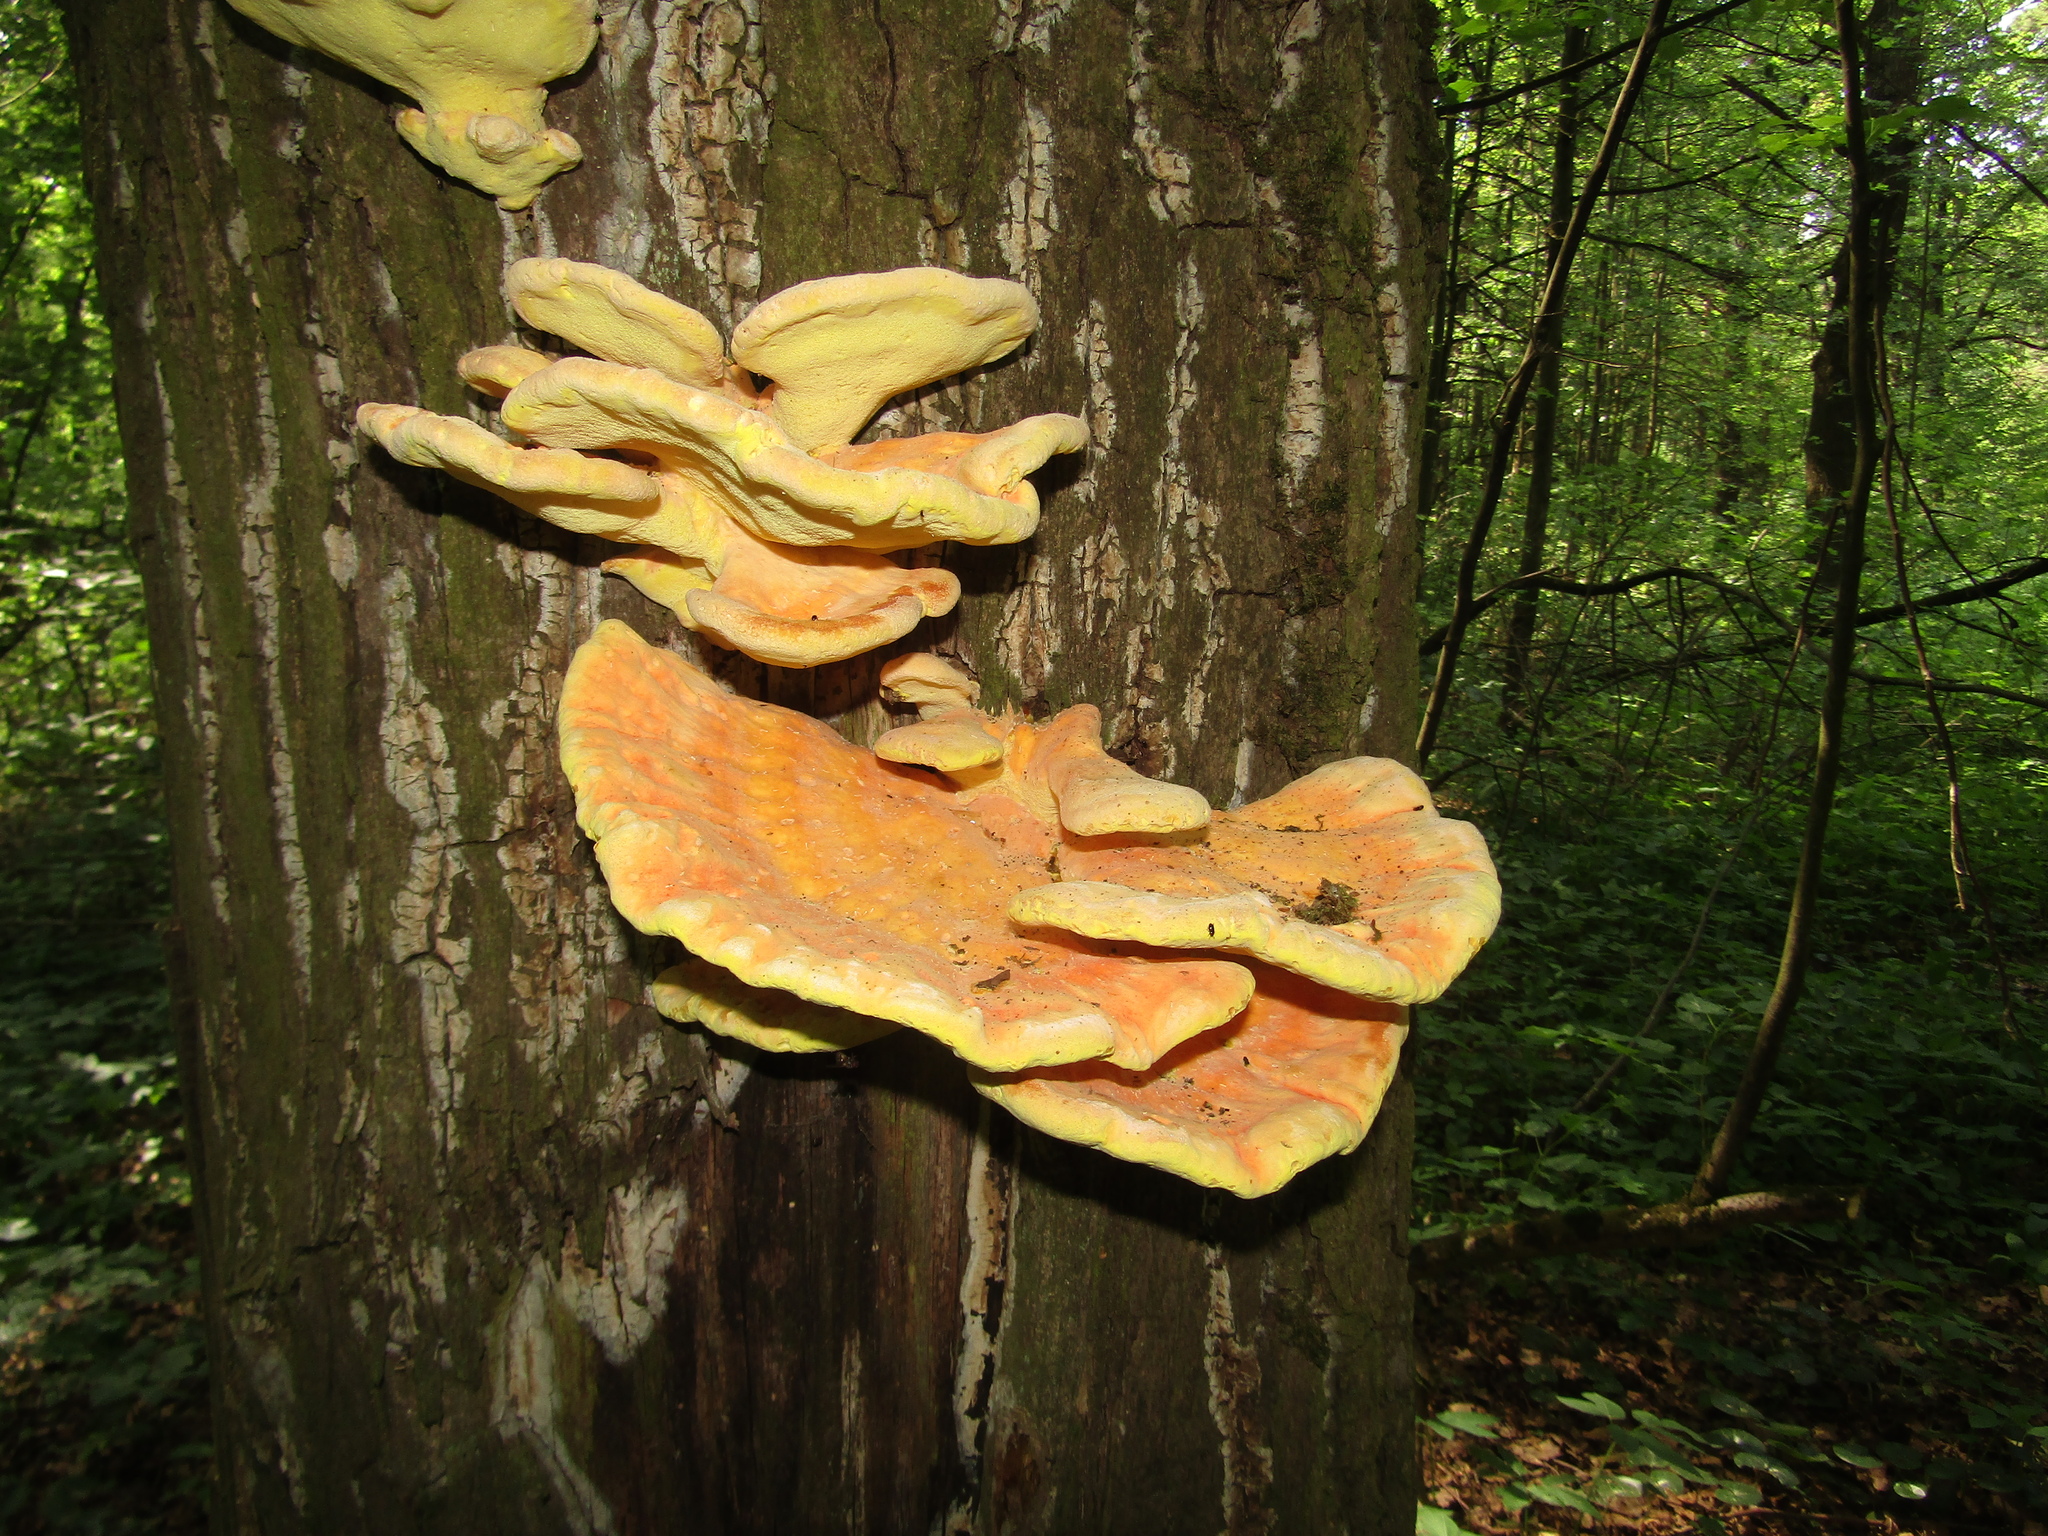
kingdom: Fungi
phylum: Basidiomycota
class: Agaricomycetes
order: Polyporales
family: Laetiporaceae
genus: Laetiporus
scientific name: Laetiporus sulphureus
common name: Chicken of the woods
